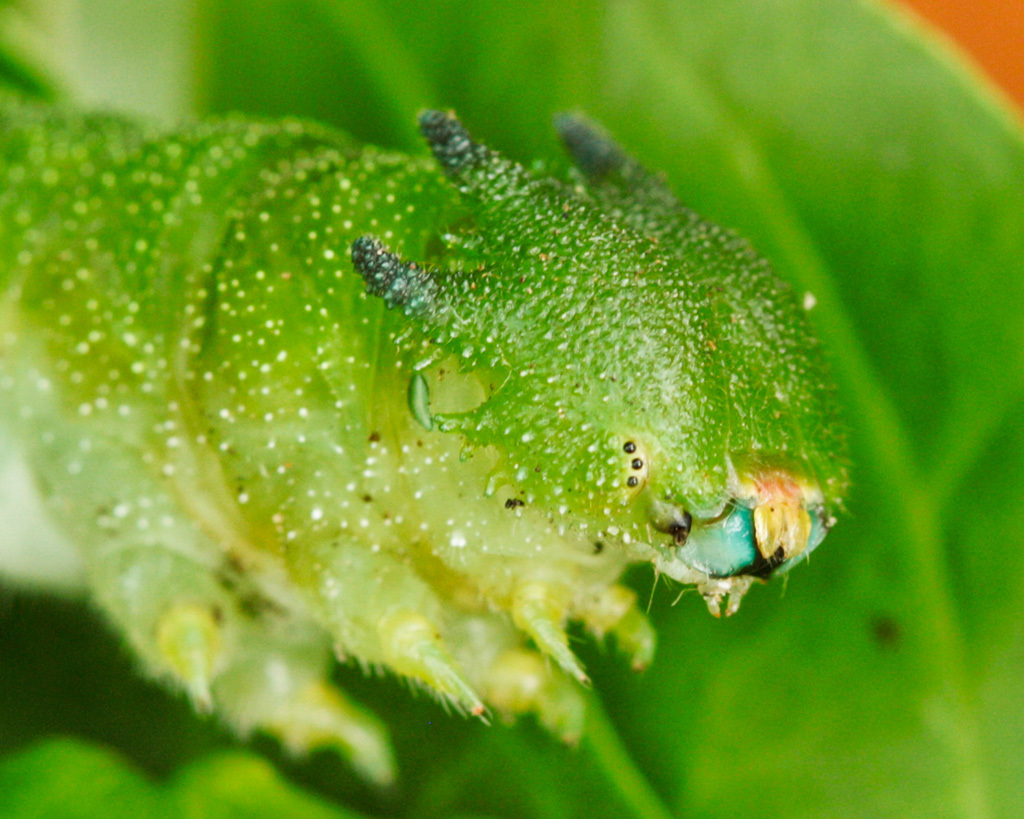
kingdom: Animalia
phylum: Arthropoda
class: Insecta
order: Lepidoptera
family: Nymphalidae
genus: Charaxes
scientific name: Charaxes brutus
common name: White-barred charaxes
